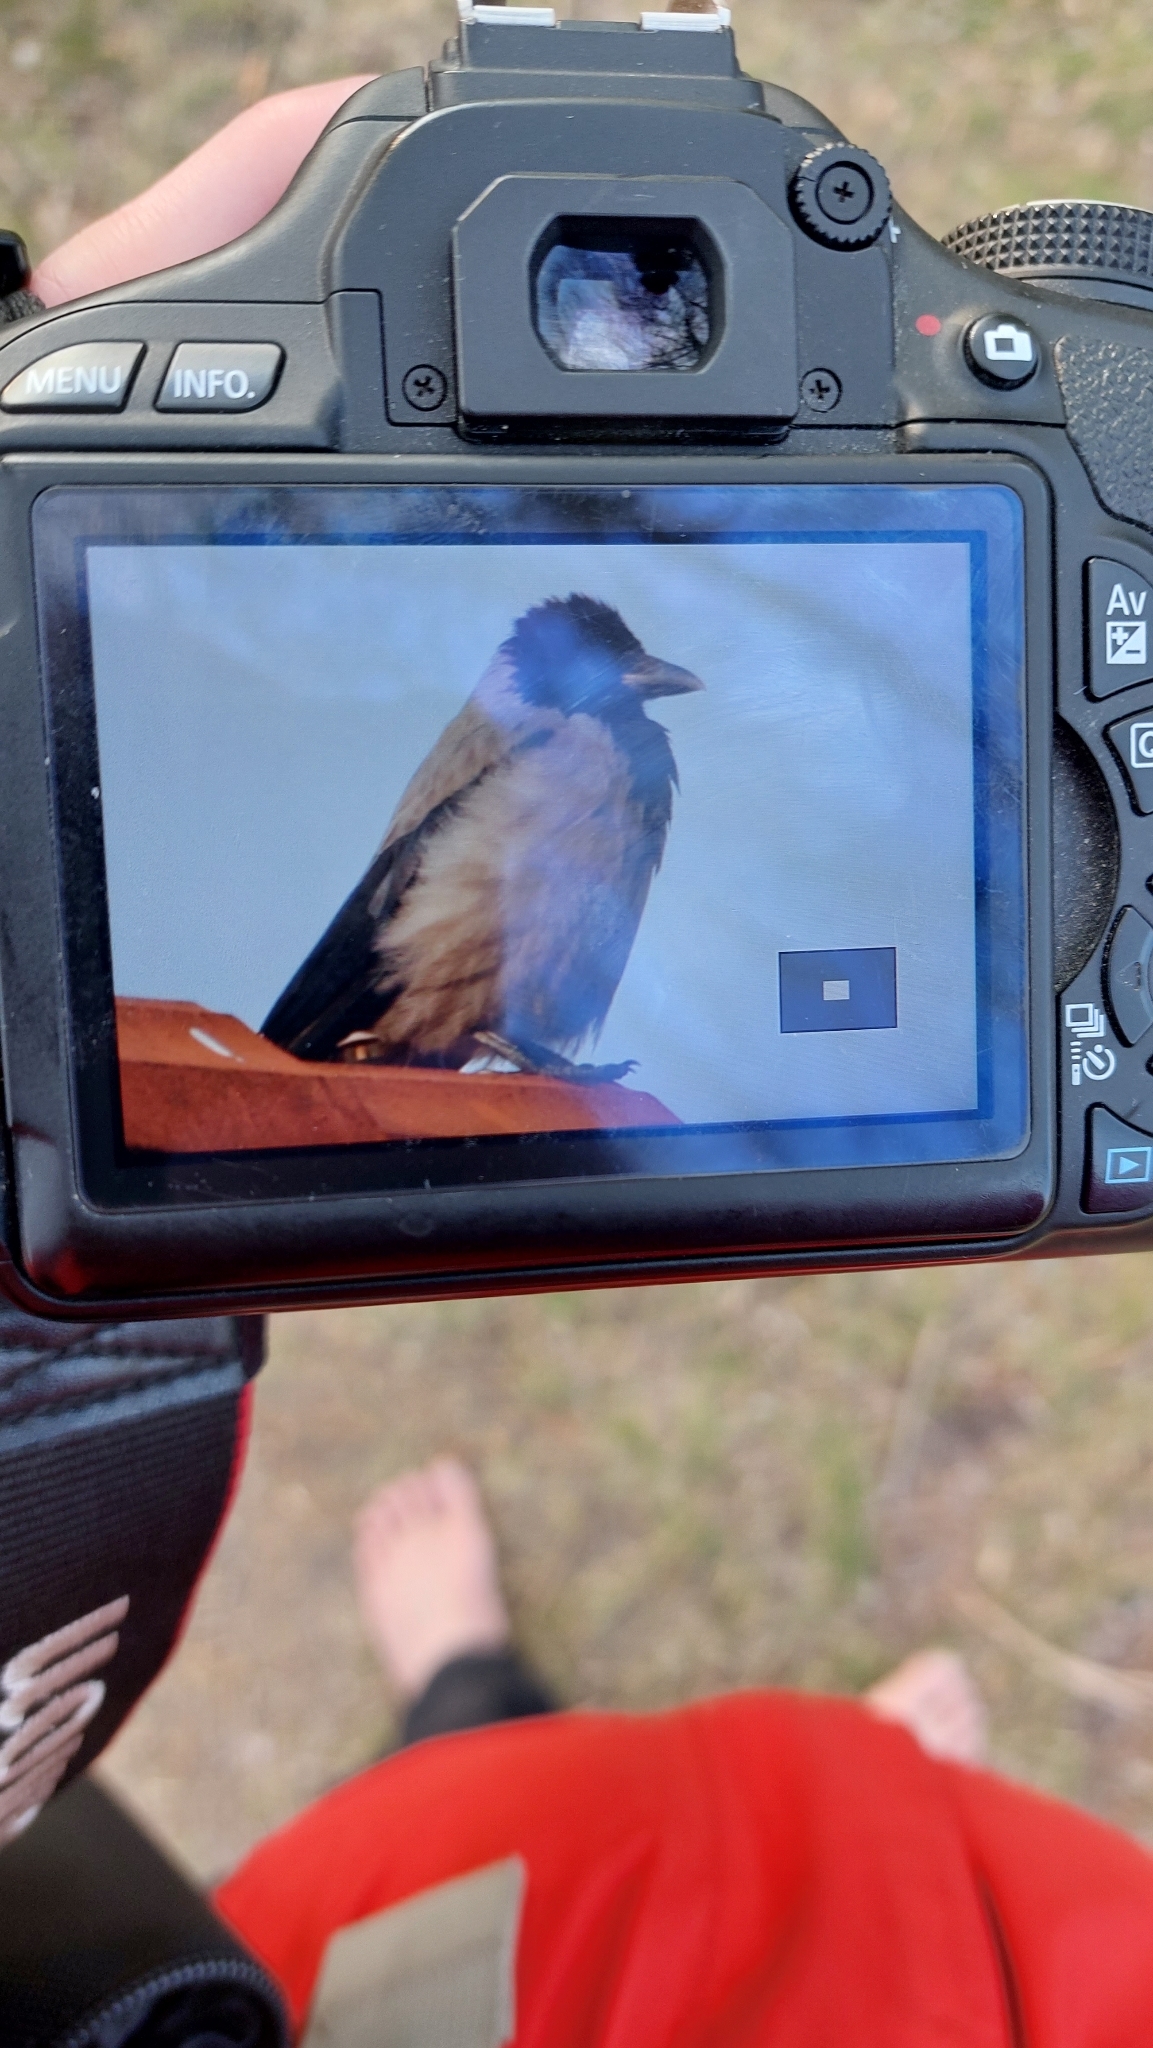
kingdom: Animalia
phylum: Chordata
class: Aves
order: Passeriformes
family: Corvidae
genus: Corvus
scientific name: Corvus cornix
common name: Hooded crow
